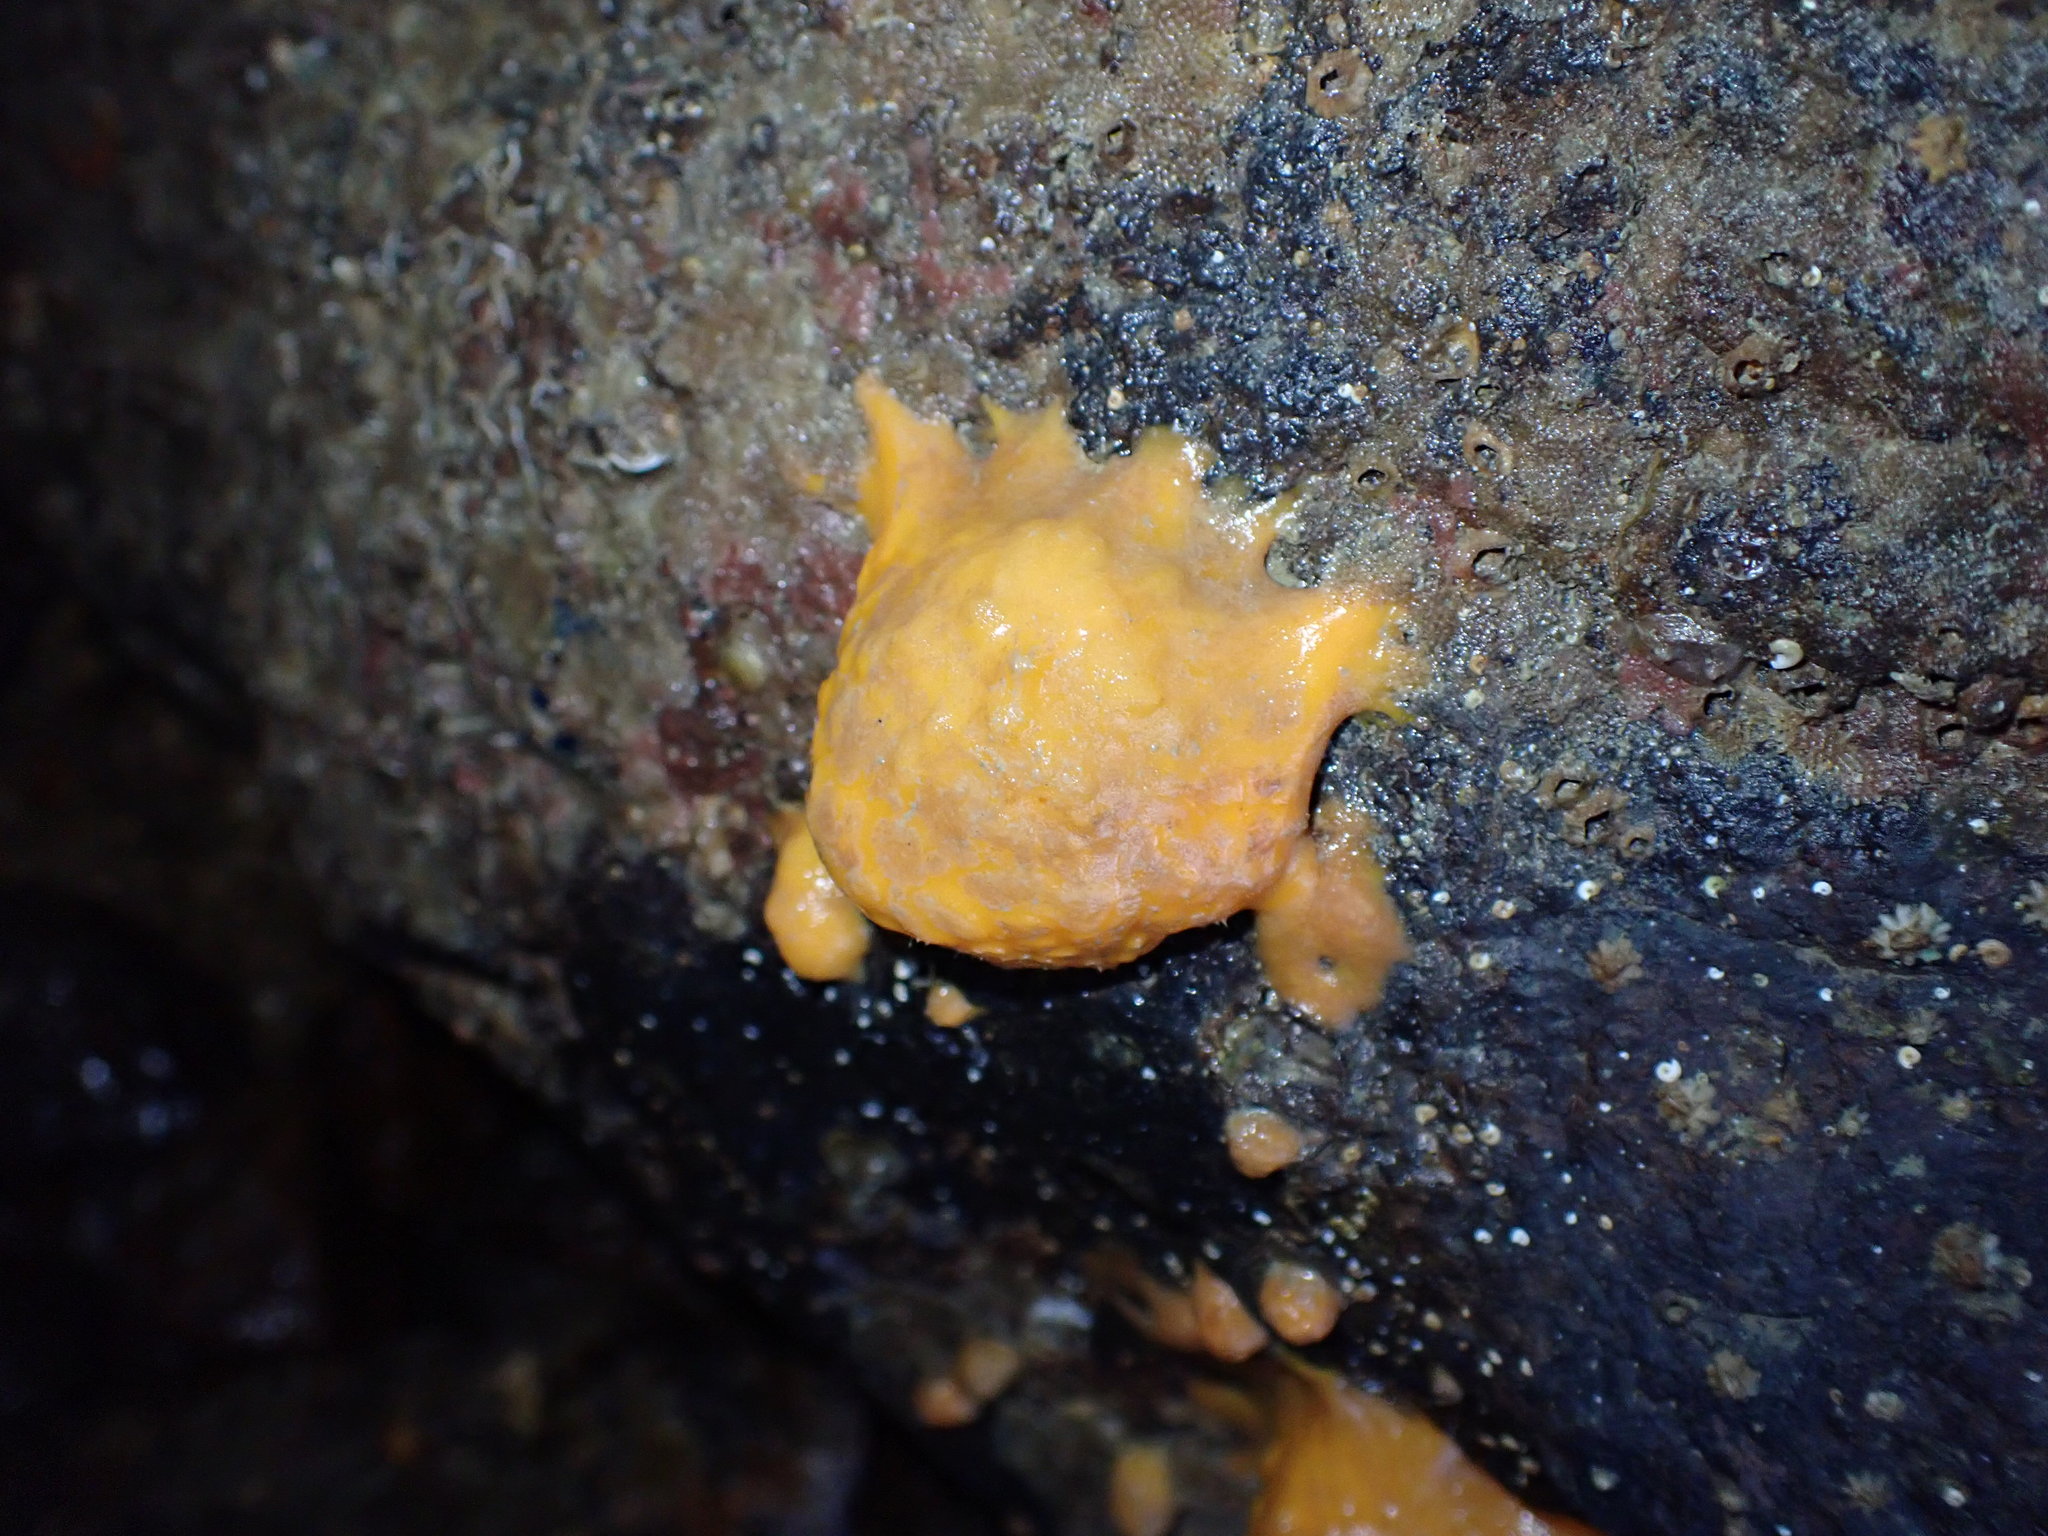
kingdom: Animalia
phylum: Porifera
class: Demospongiae
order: Tethyida
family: Tethyidae
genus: Tethya
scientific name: Tethya burtoni
